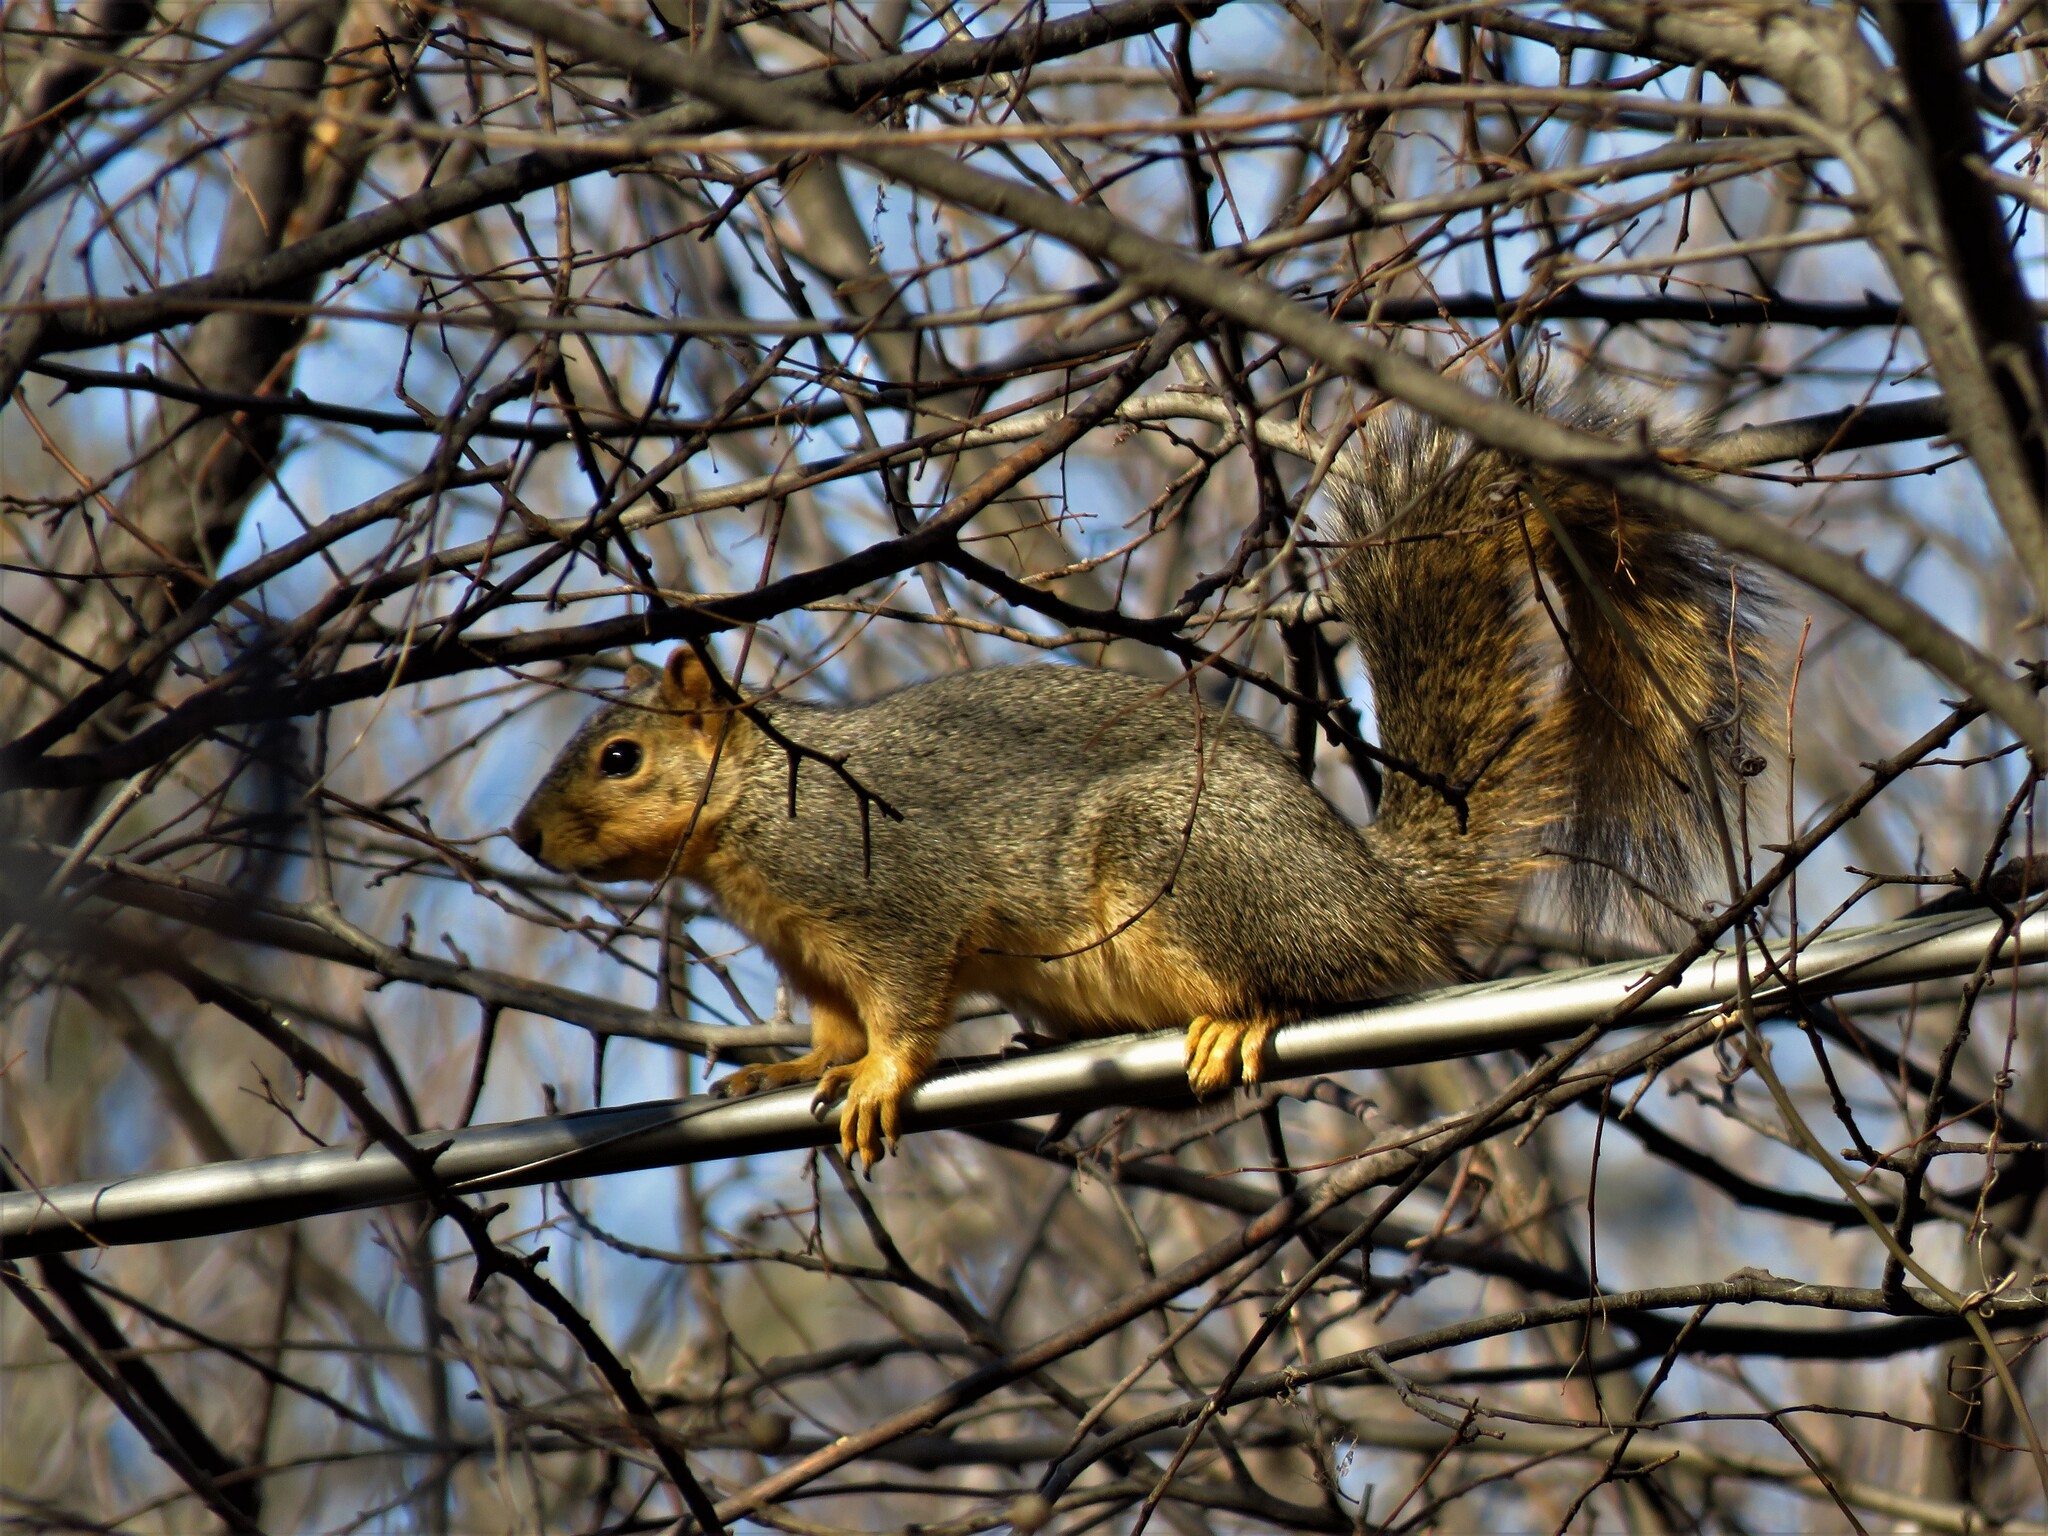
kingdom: Animalia
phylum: Chordata
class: Mammalia
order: Rodentia
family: Sciuridae
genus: Sciurus
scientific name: Sciurus niger
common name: Fox squirrel
